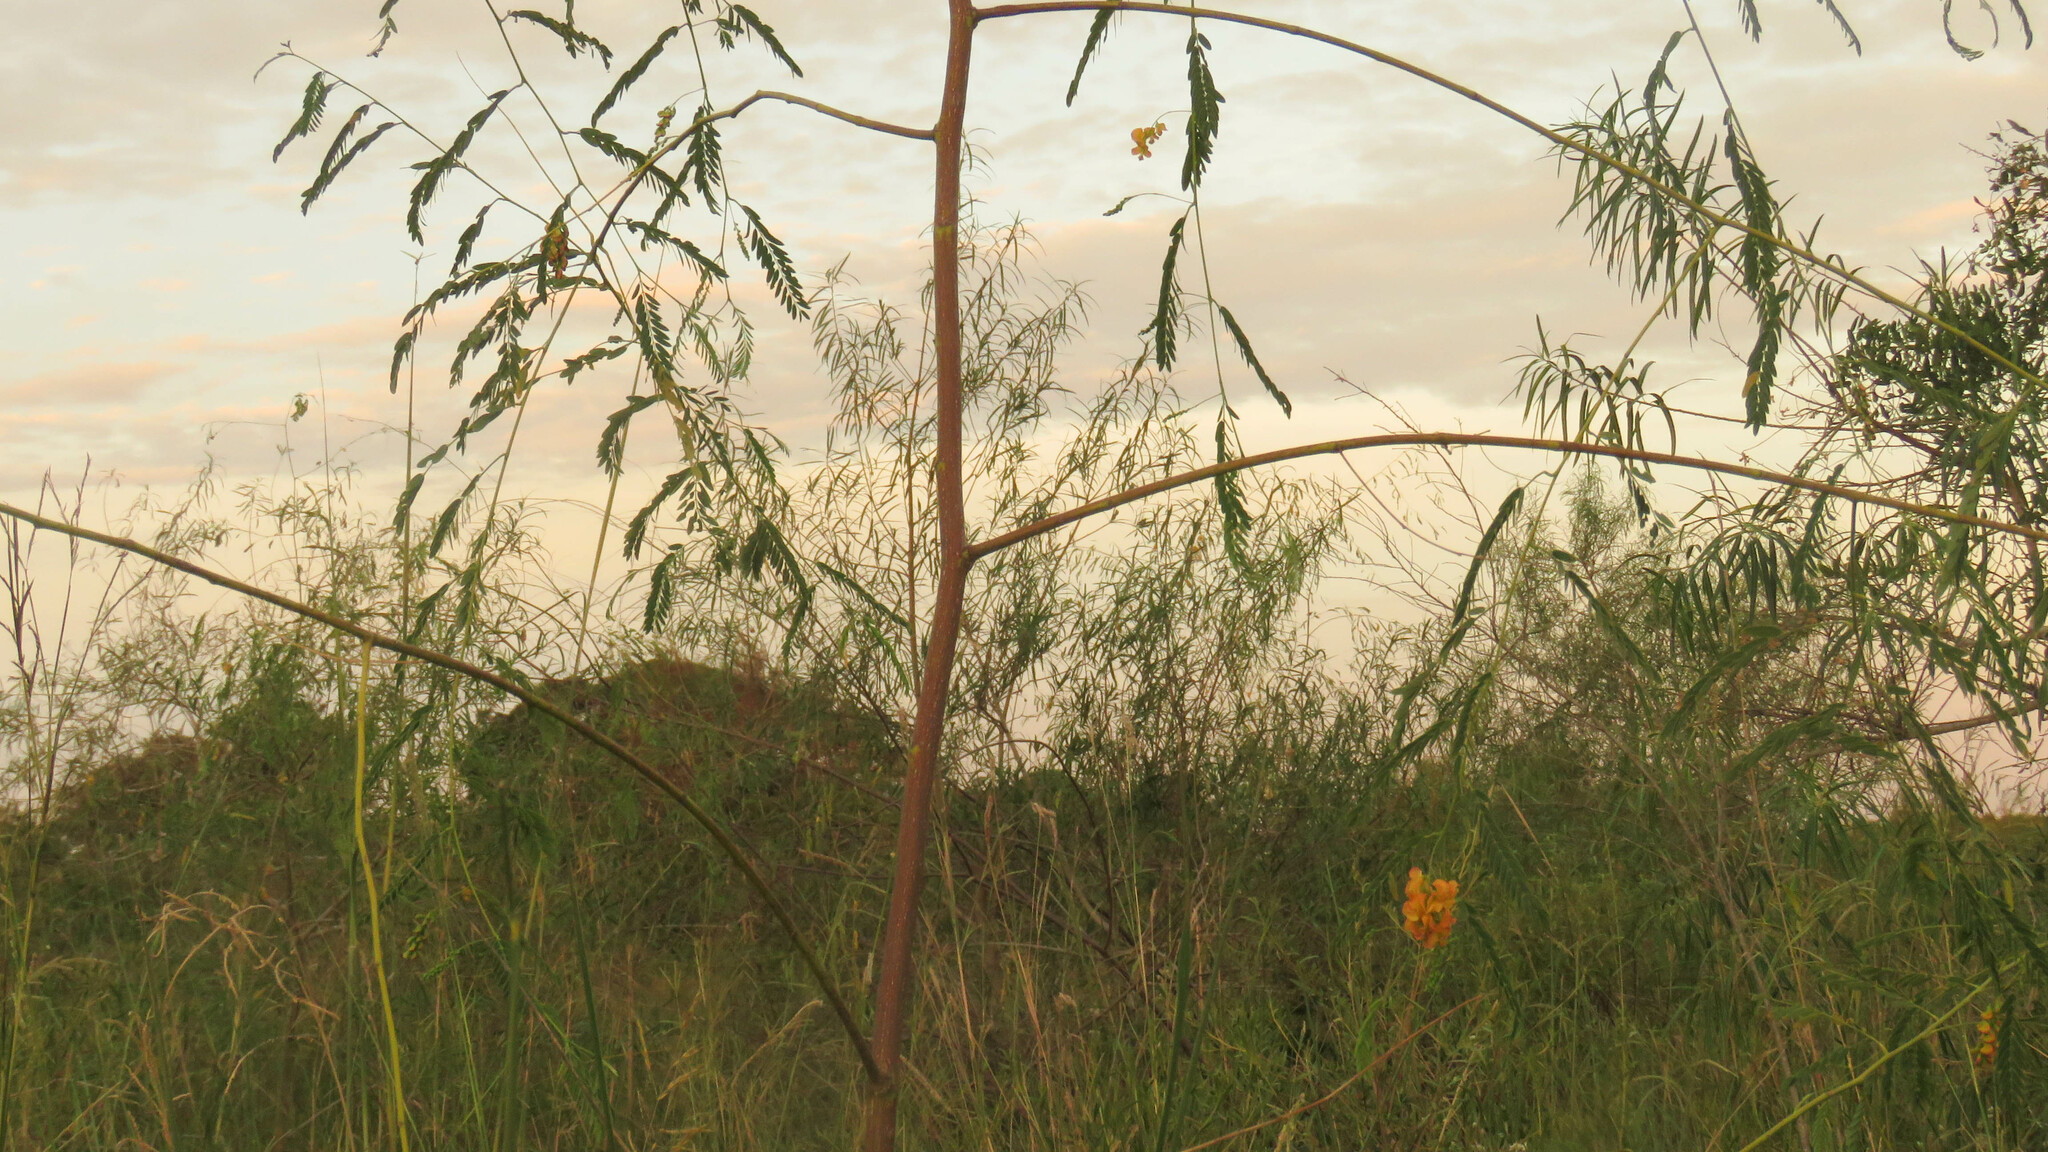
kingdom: Plantae
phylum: Tracheophyta
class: Magnoliopsida
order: Fabales
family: Fabaceae
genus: Sesbania
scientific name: Sesbania macroptera
